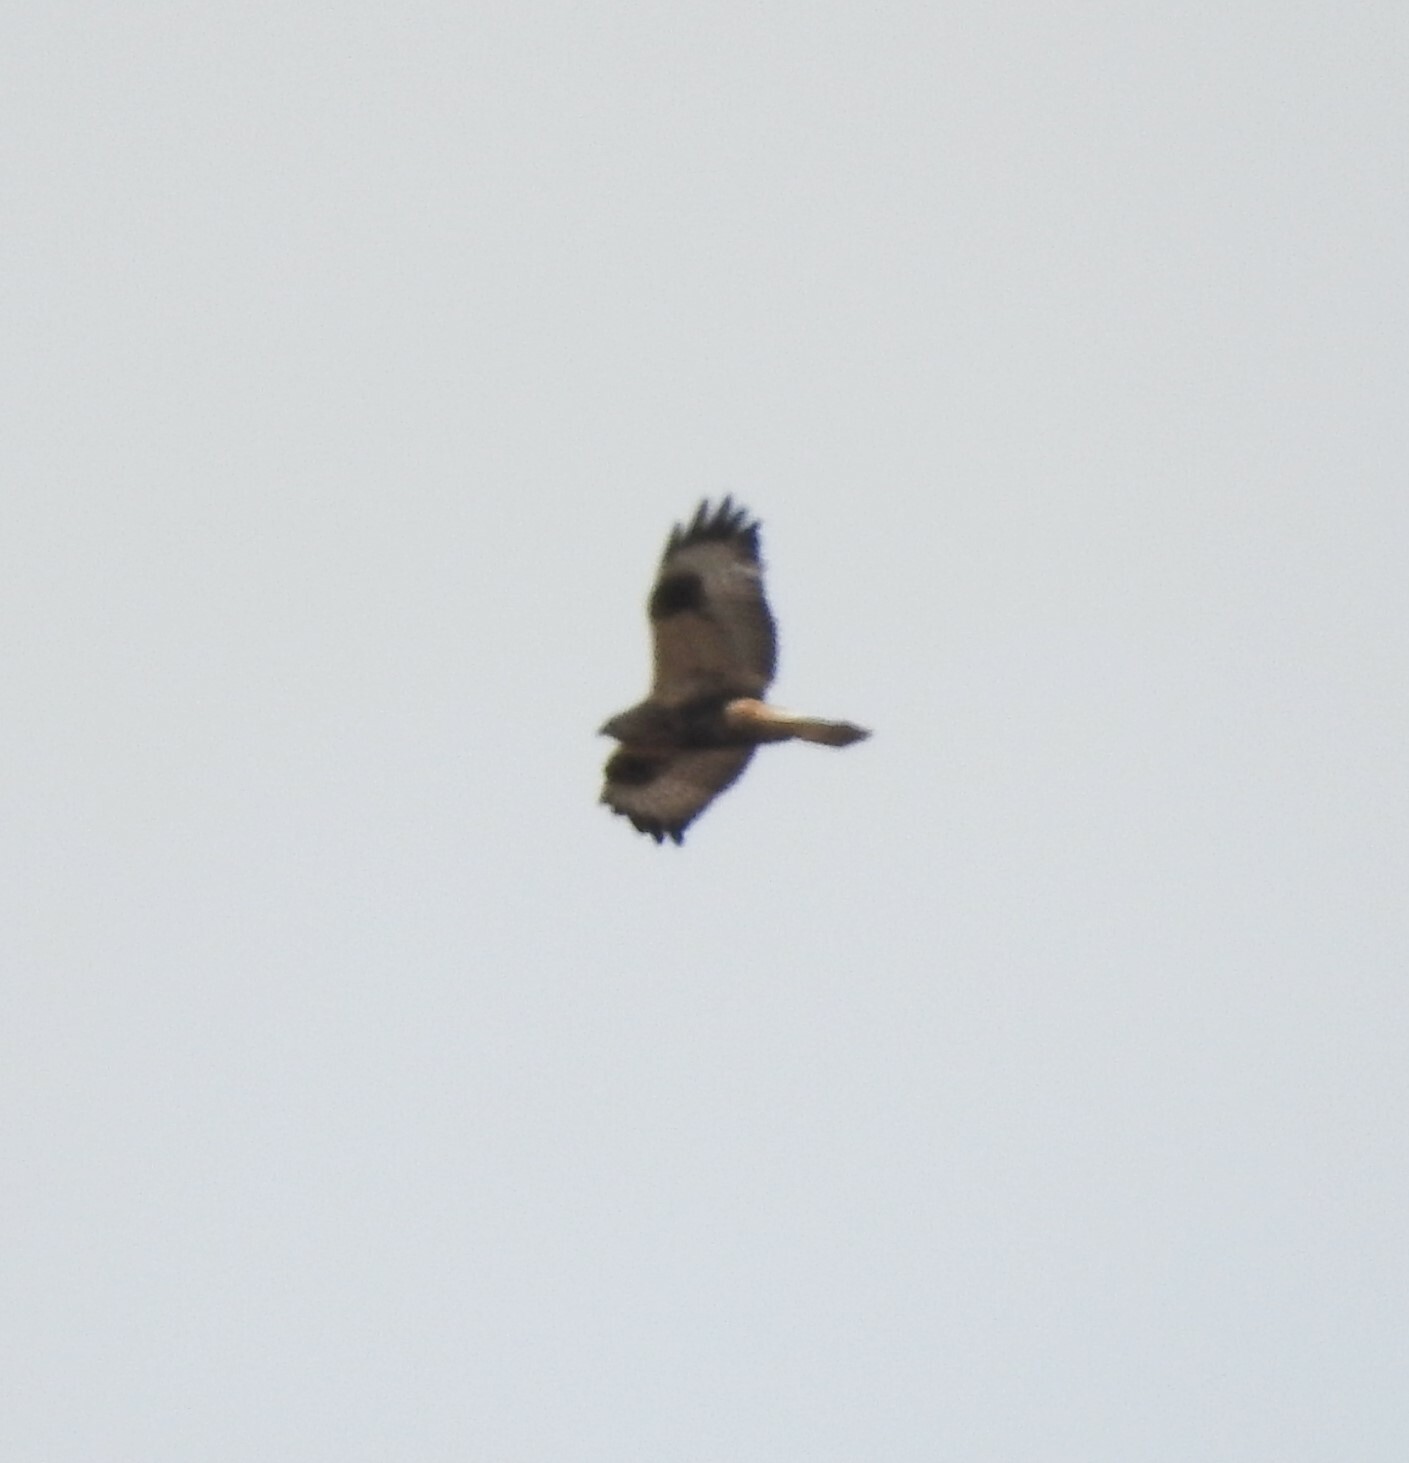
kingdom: Animalia
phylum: Chordata
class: Aves
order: Accipitriformes
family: Accipitridae
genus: Buteo
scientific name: Buteo lagopus
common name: Rough-legged buzzard
